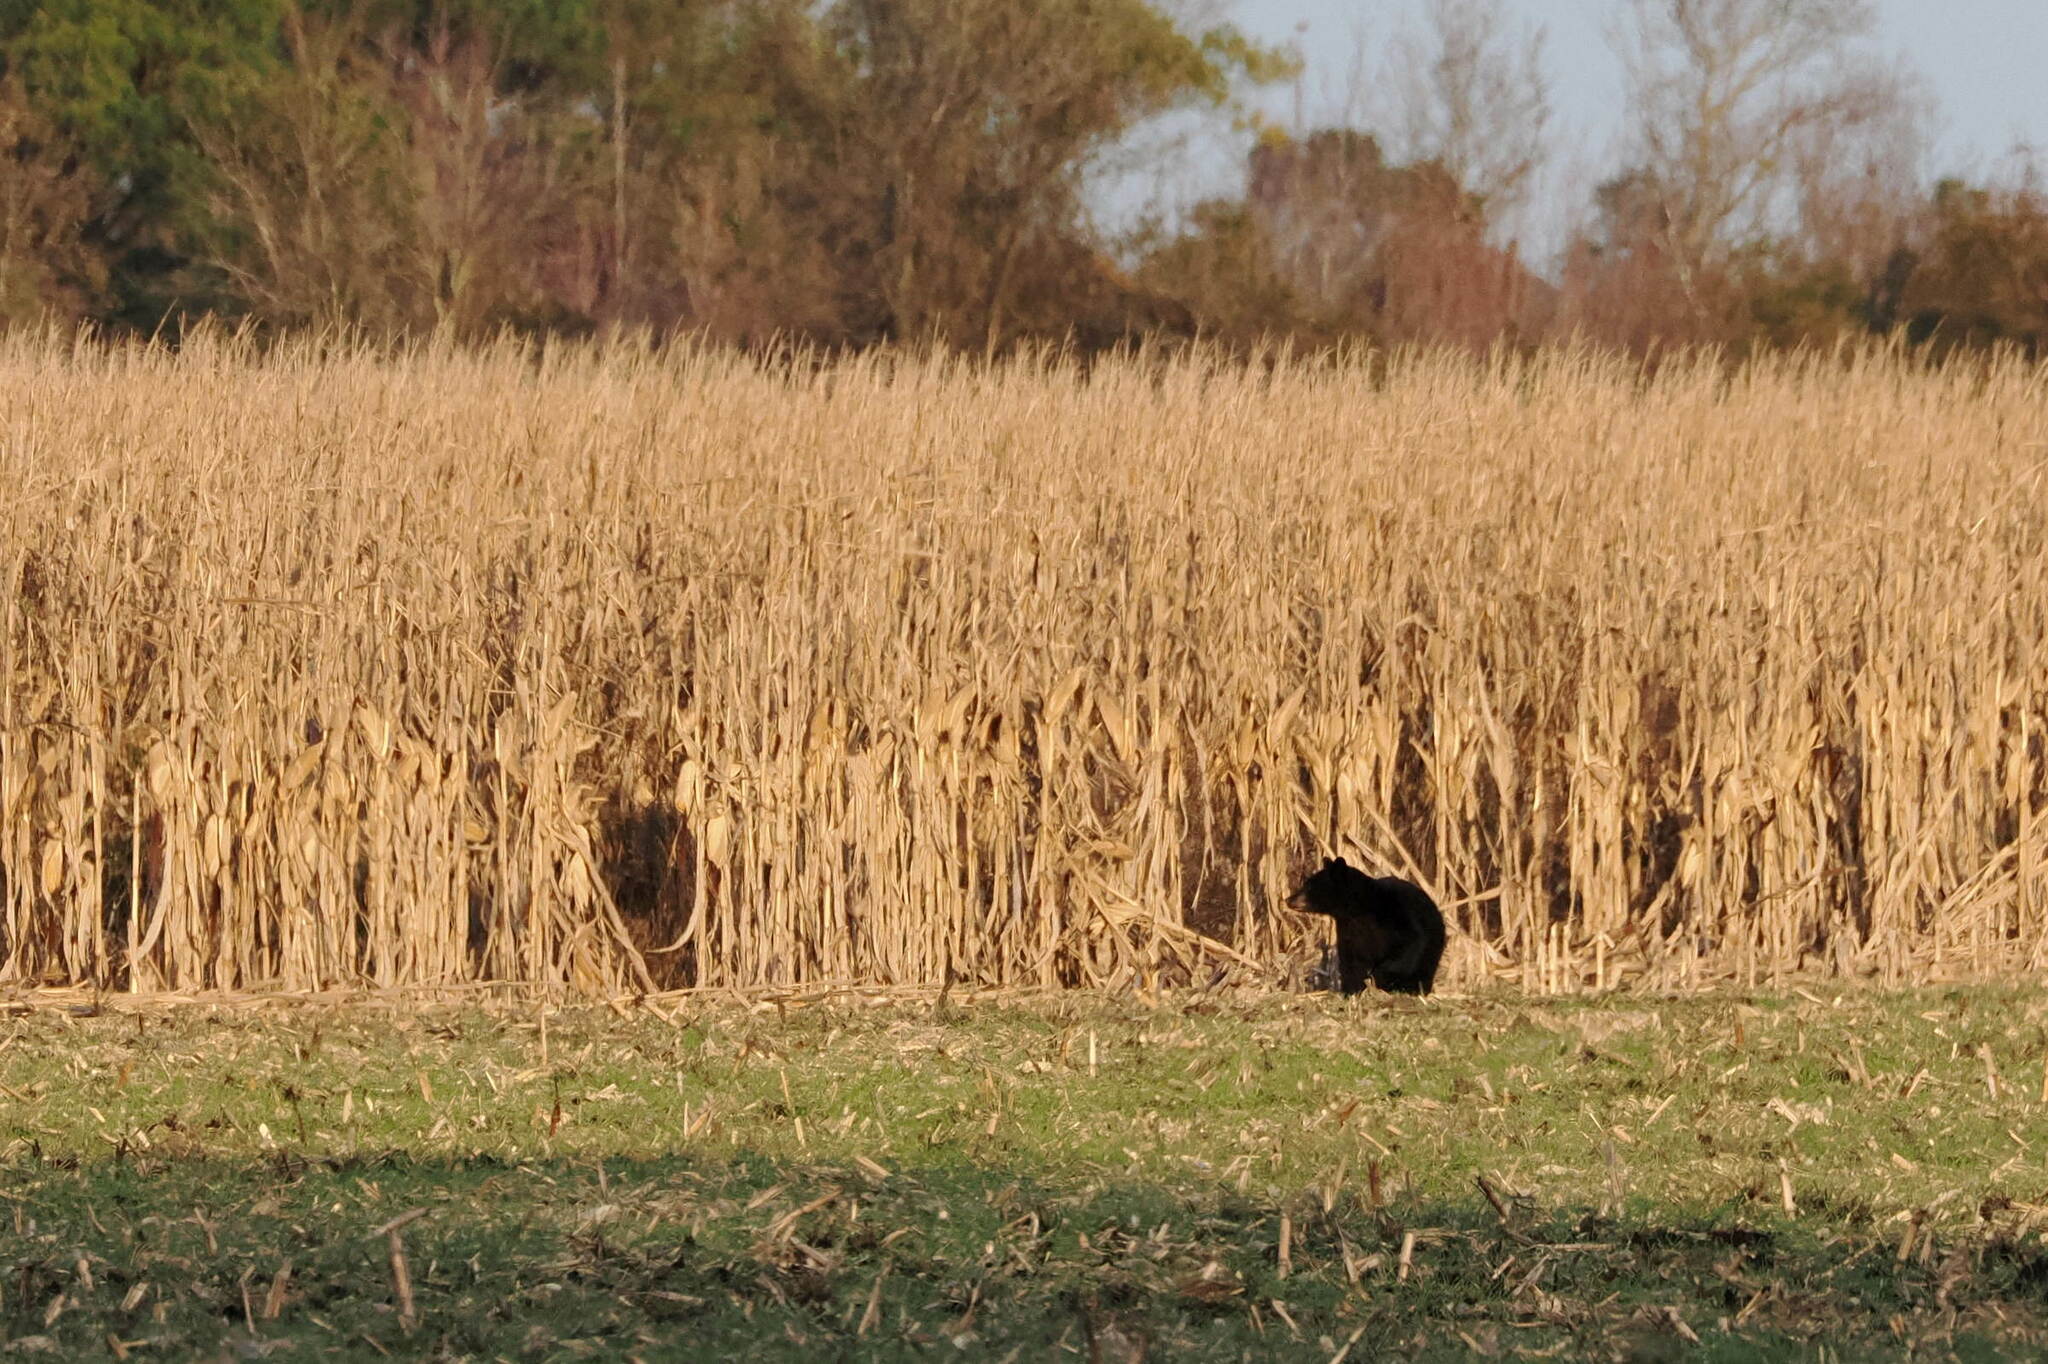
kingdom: Animalia
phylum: Chordata
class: Mammalia
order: Carnivora
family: Ursidae
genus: Ursus
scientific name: Ursus americanus
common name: American black bear
